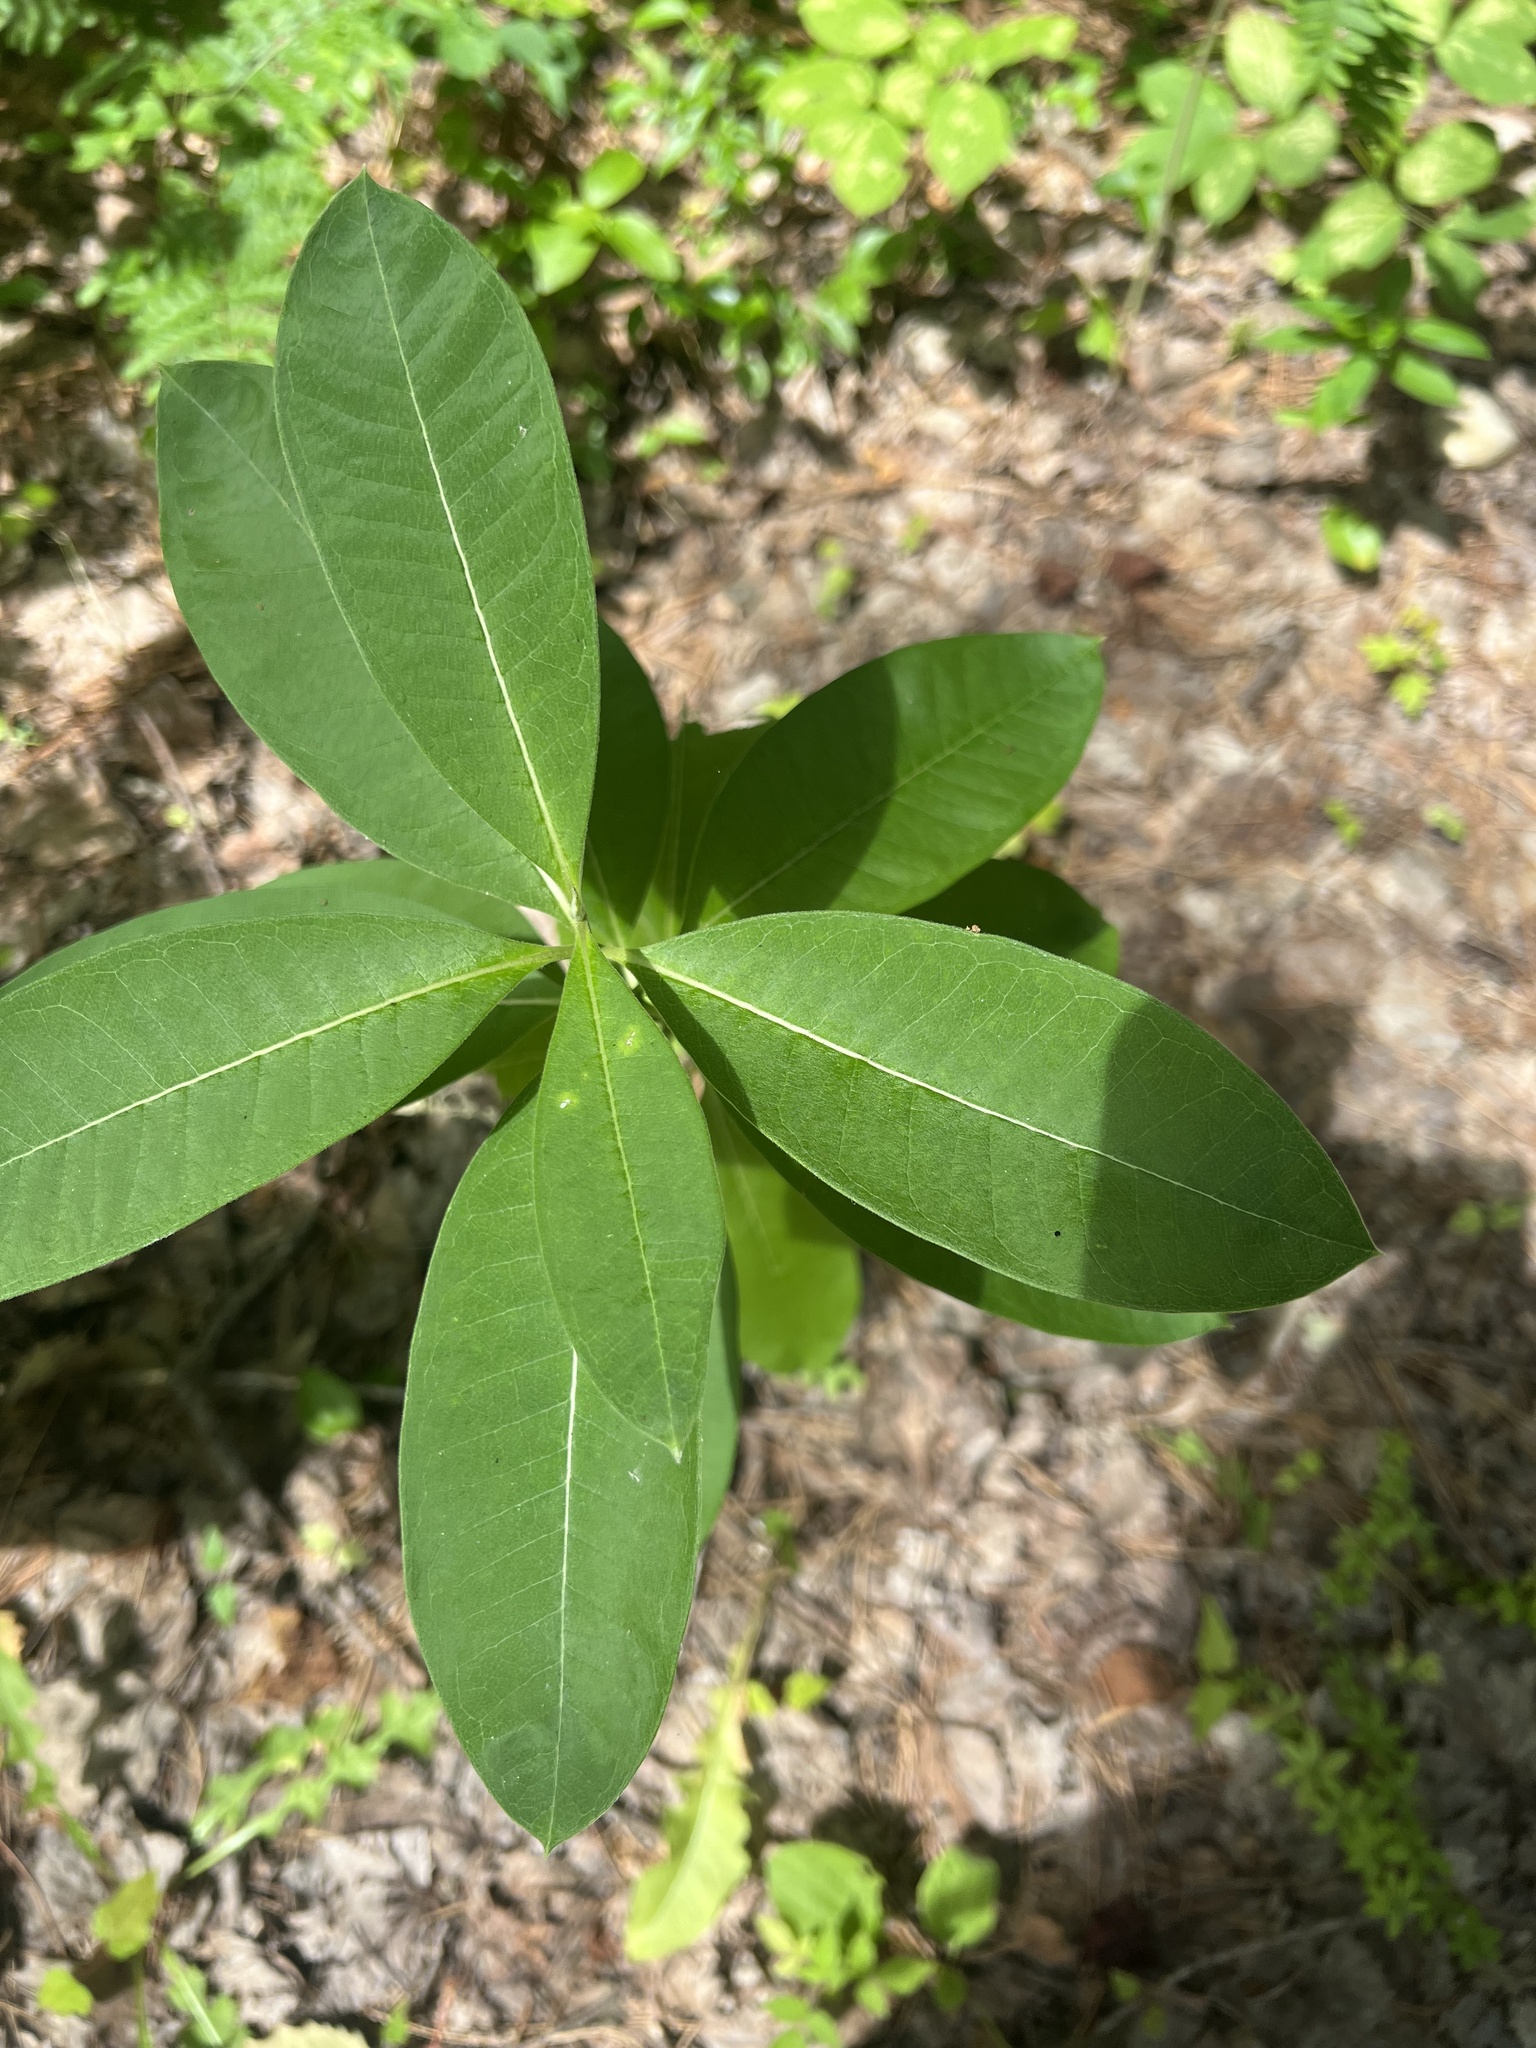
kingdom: Plantae
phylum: Tracheophyta
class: Magnoliopsida
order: Gentianales
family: Apocynaceae
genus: Asclepias
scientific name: Asclepias syriaca
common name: Common milkweed
